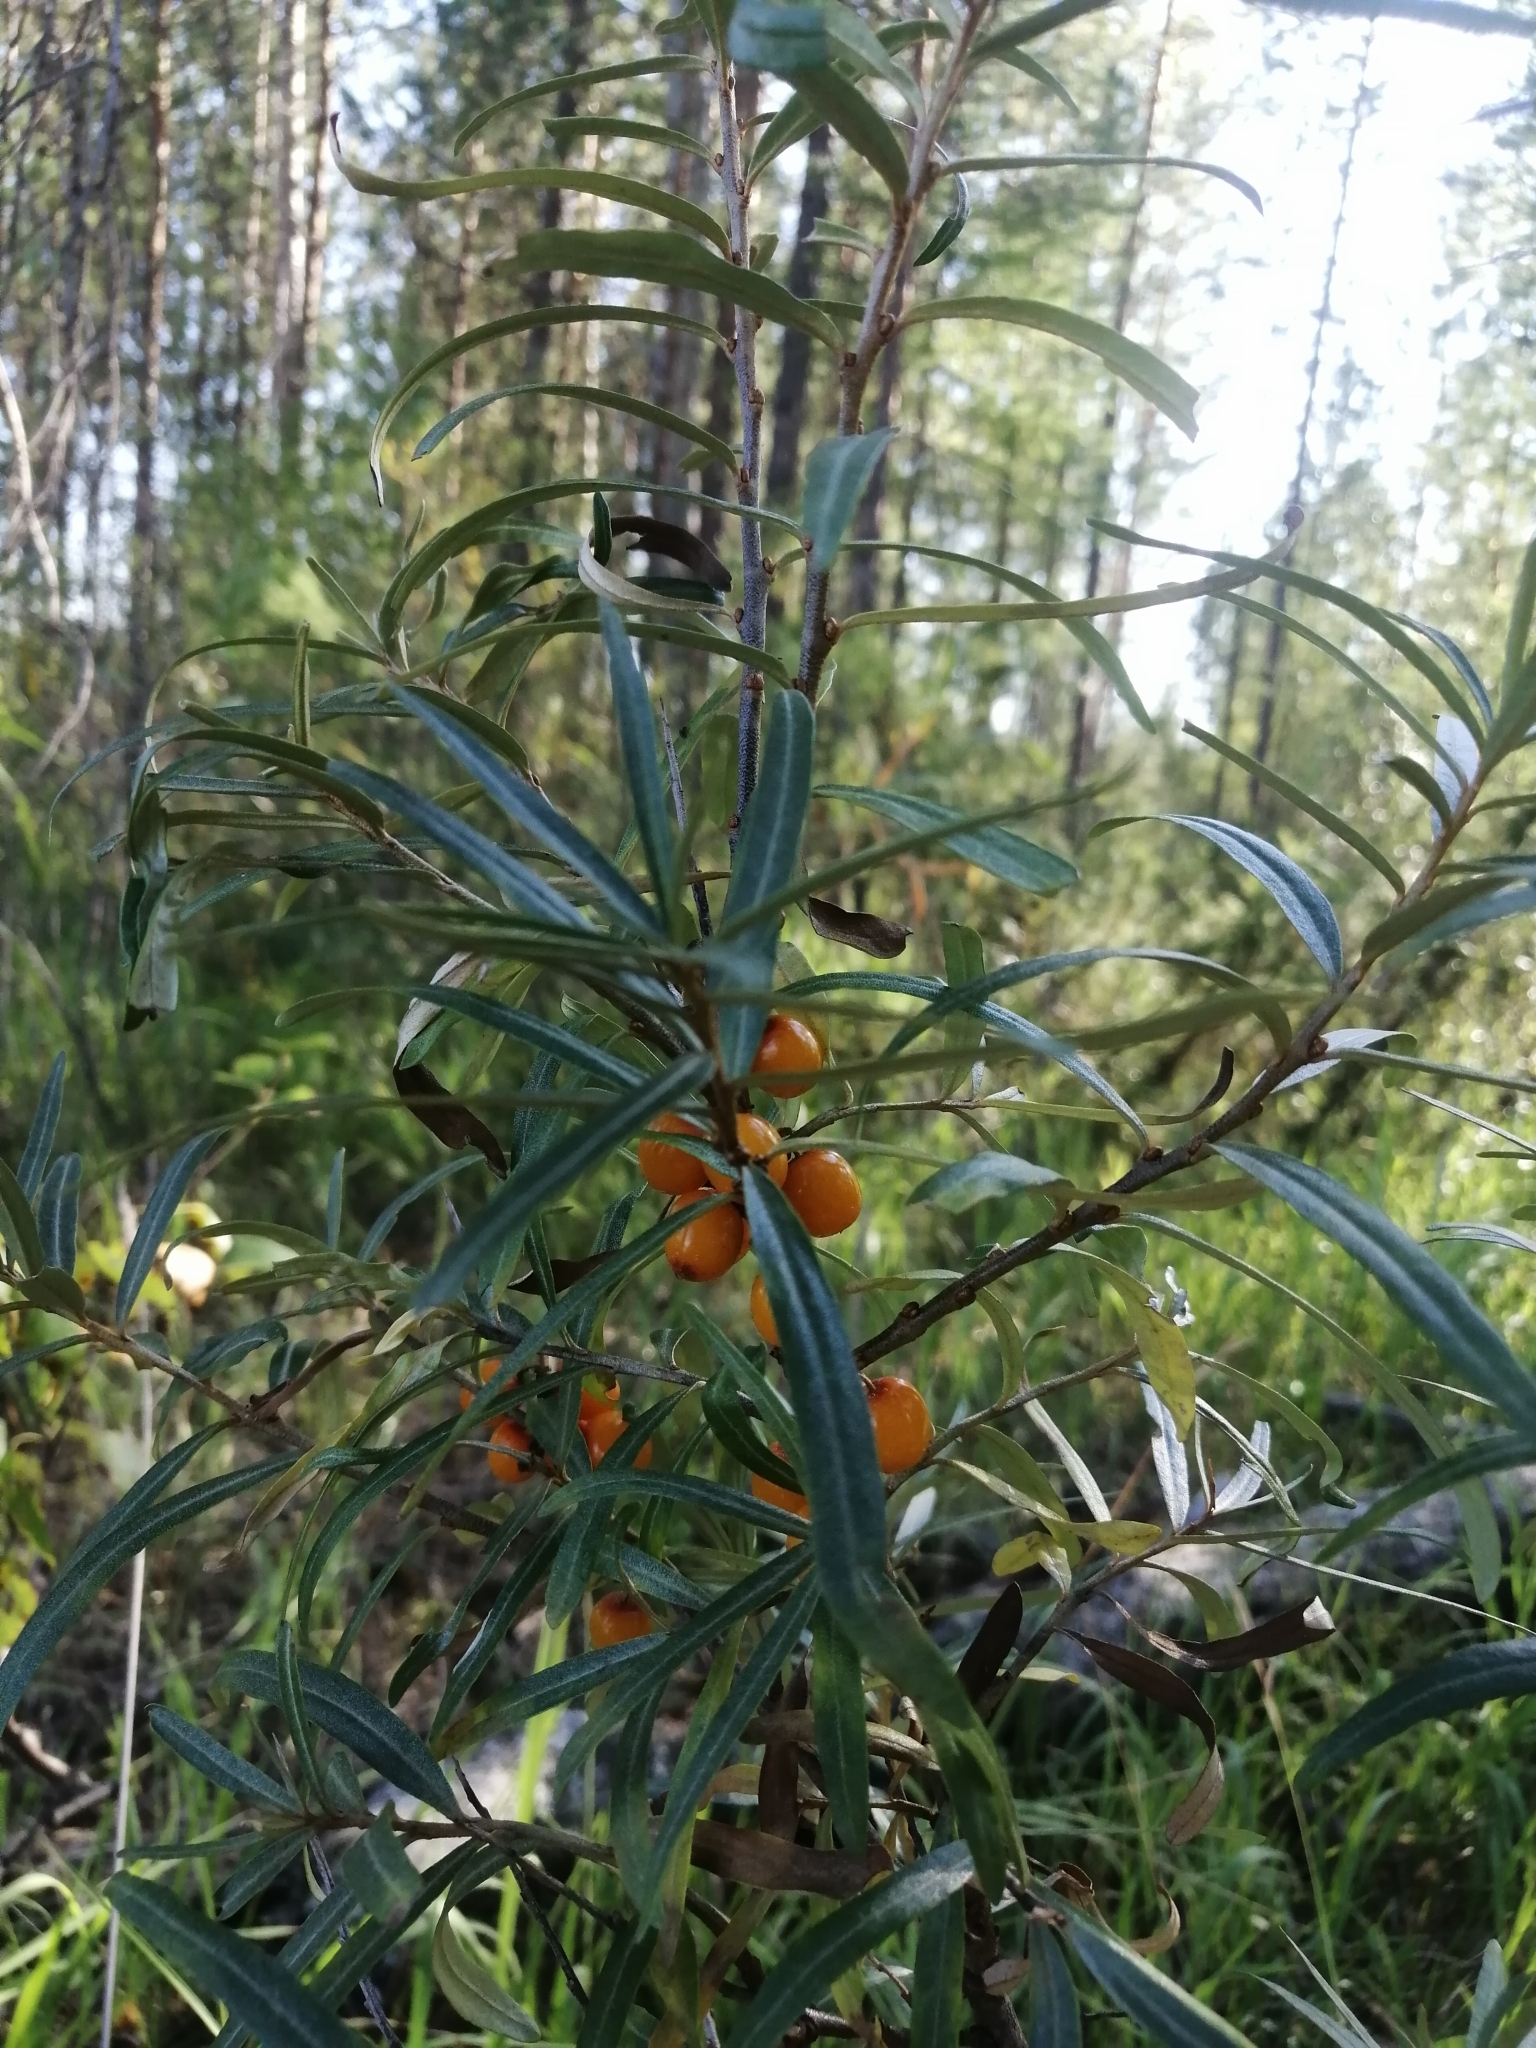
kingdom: Plantae
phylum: Tracheophyta
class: Magnoliopsida
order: Rosales
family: Elaeagnaceae
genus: Hippophae
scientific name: Hippophae rhamnoides
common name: Sea-buckthorn
